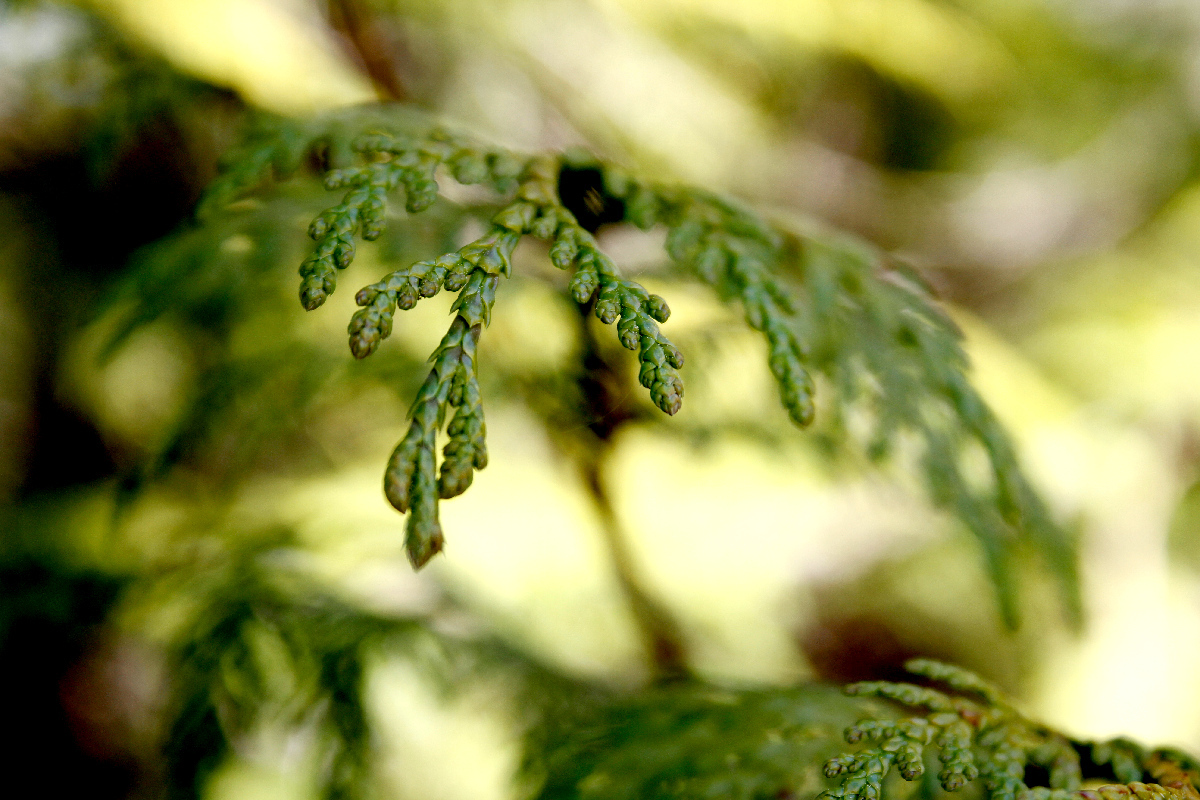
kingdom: Plantae
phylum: Tracheophyta
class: Pinopsida
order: Pinales
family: Cupressaceae
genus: Thuja
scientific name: Thuja plicata
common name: Western red-cedar
